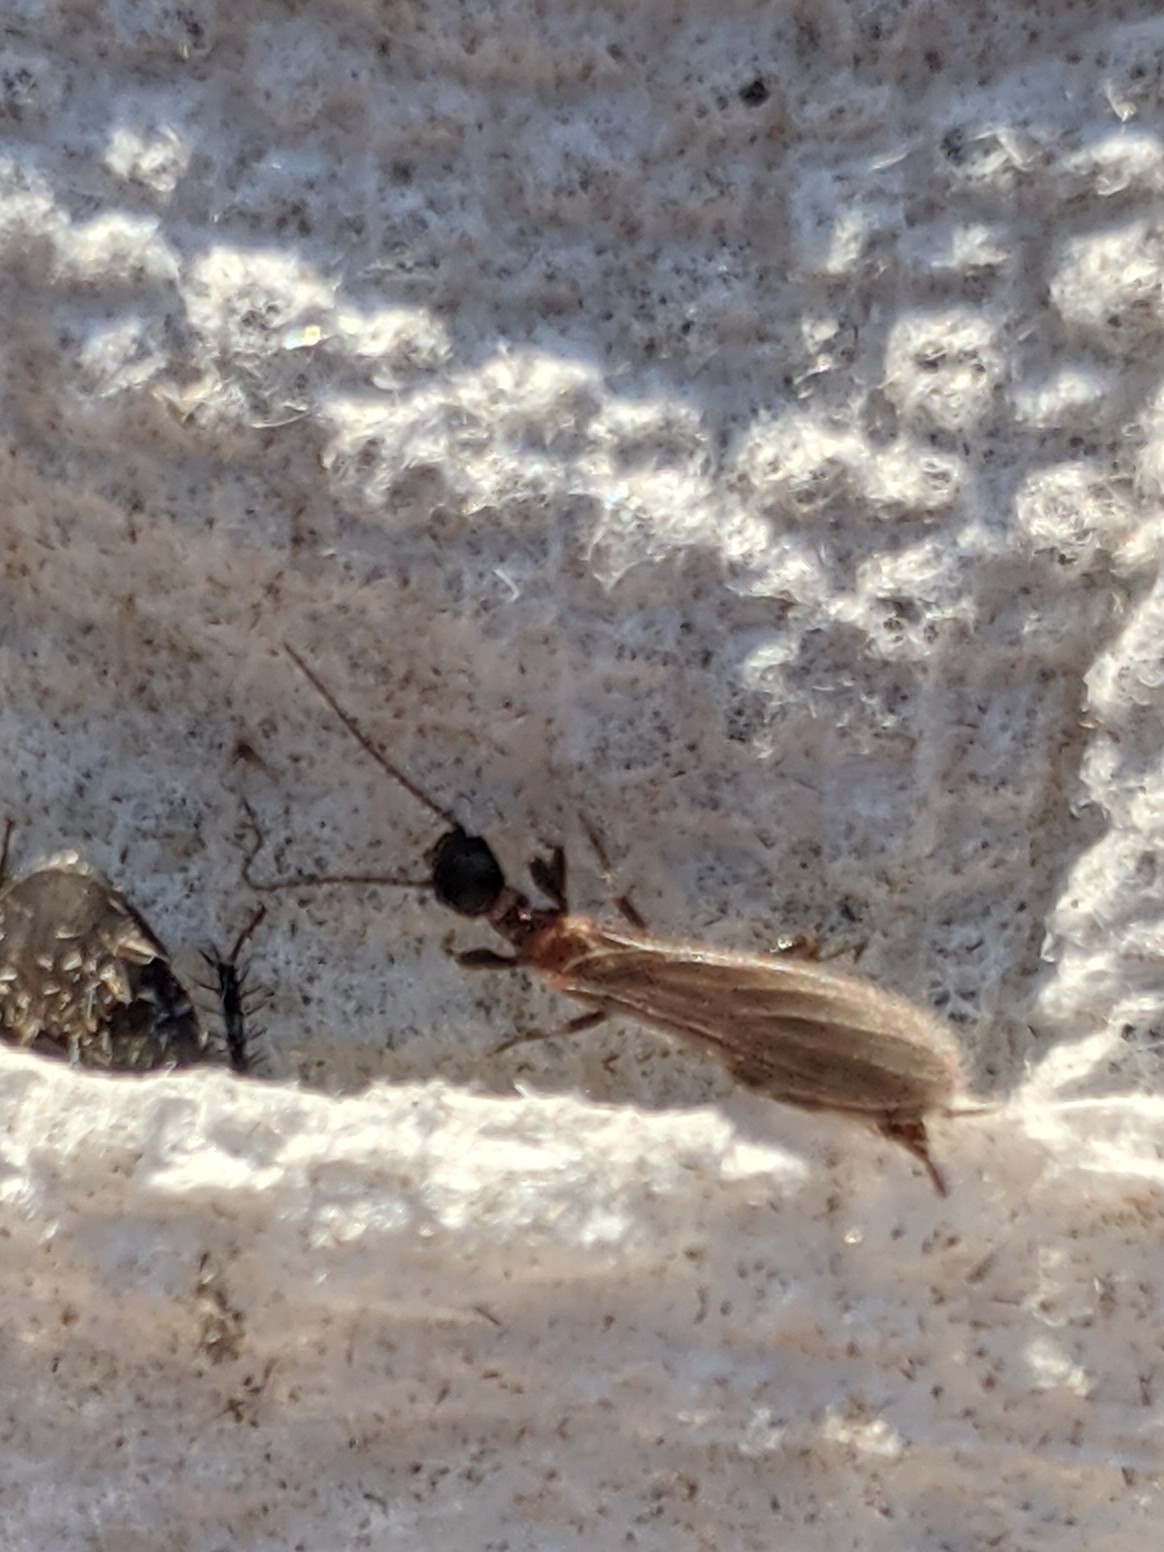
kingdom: Animalia
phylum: Arthropoda
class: Insecta
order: Embioptera
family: Oligotomidae
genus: Oligotoma
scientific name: Oligotoma nigra
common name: Black webspinner
